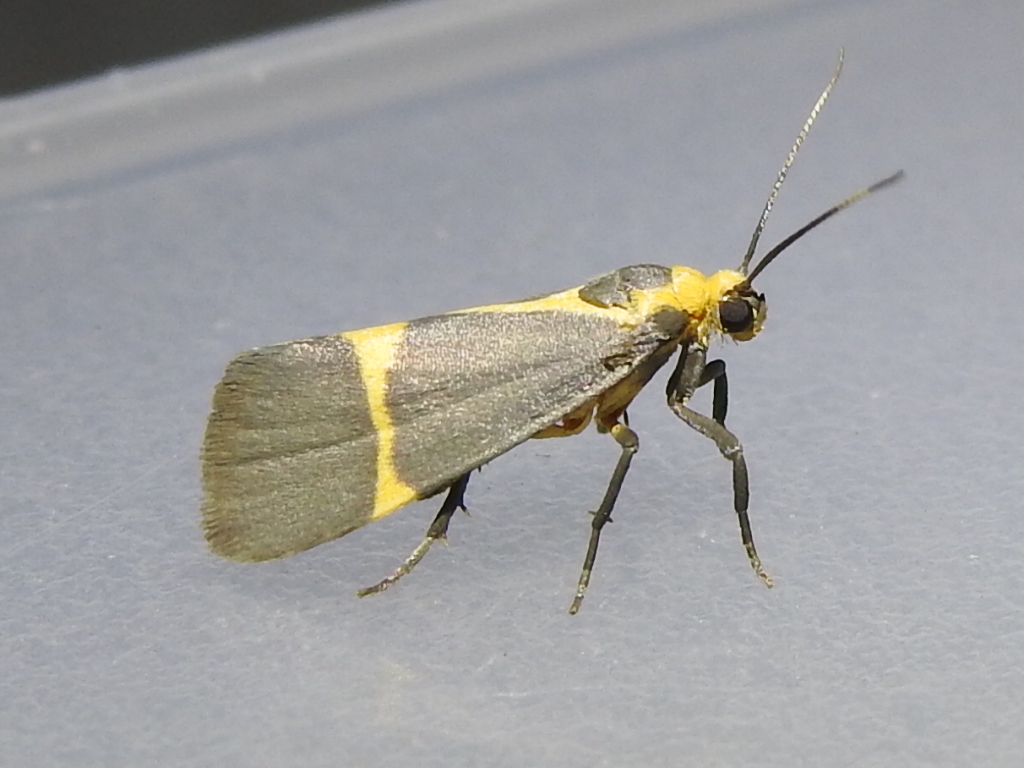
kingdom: Animalia
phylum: Arthropoda
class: Insecta
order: Lepidoptera
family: Erebidae
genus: Cisthene
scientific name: Cisthene tenuifascia
